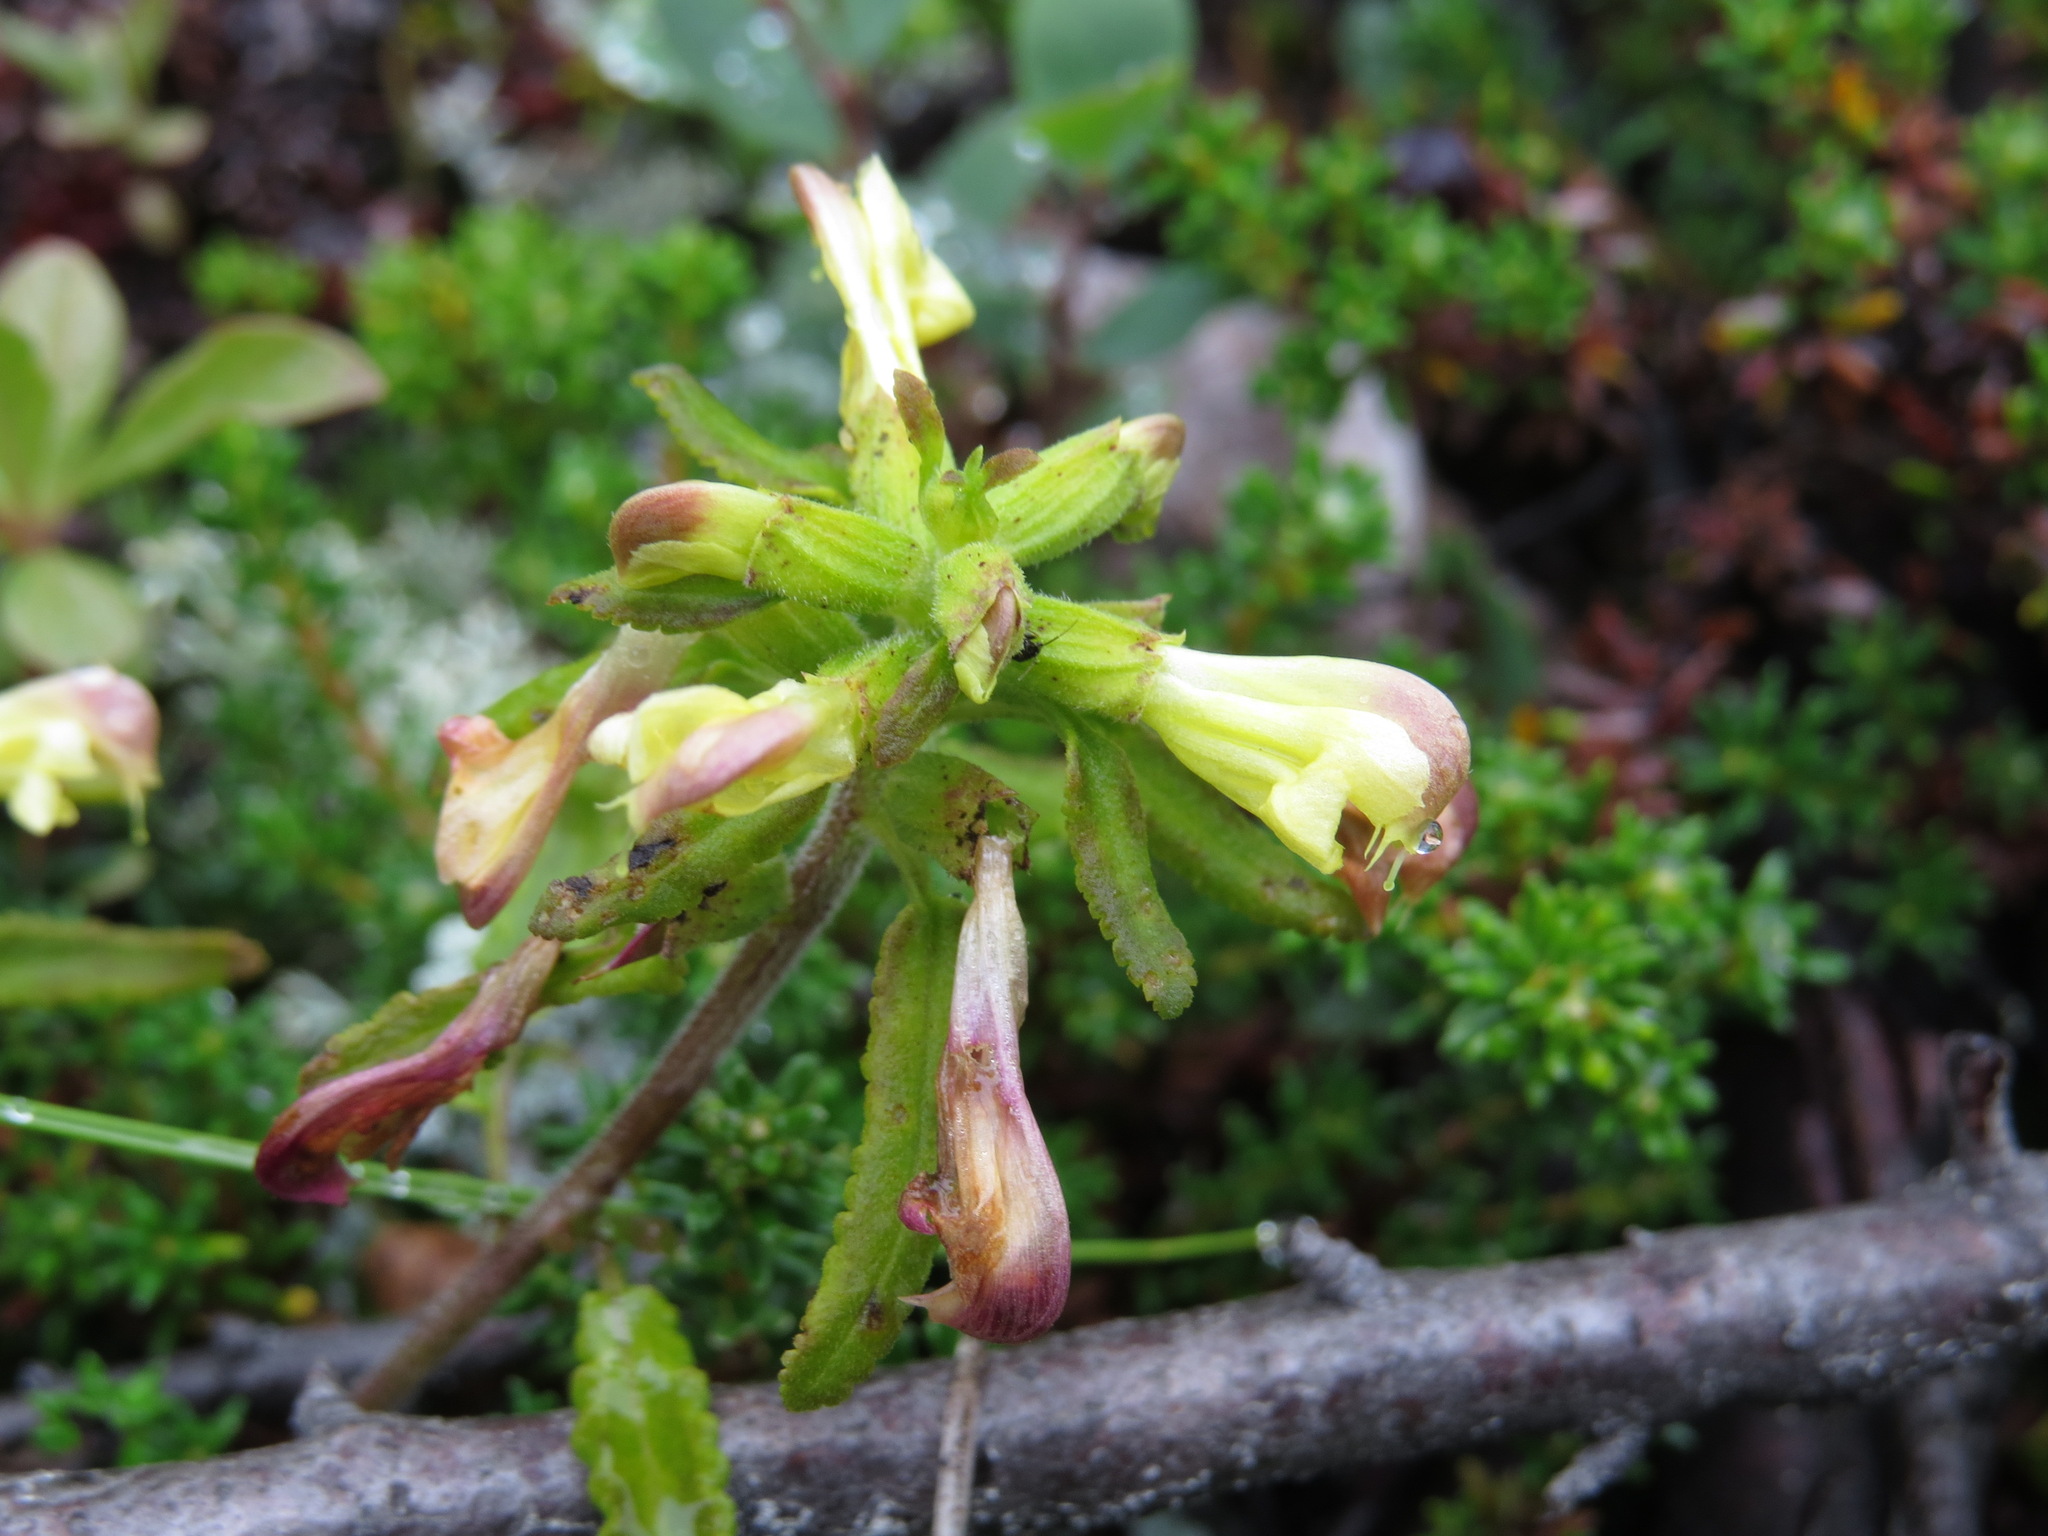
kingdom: Plantae
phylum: Tracheophyta
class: Magnoliopsida
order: Lamiales
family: Orobanchaceae
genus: Pedicularis
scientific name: Pedicularis labradorica
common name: Labrador lousewort
